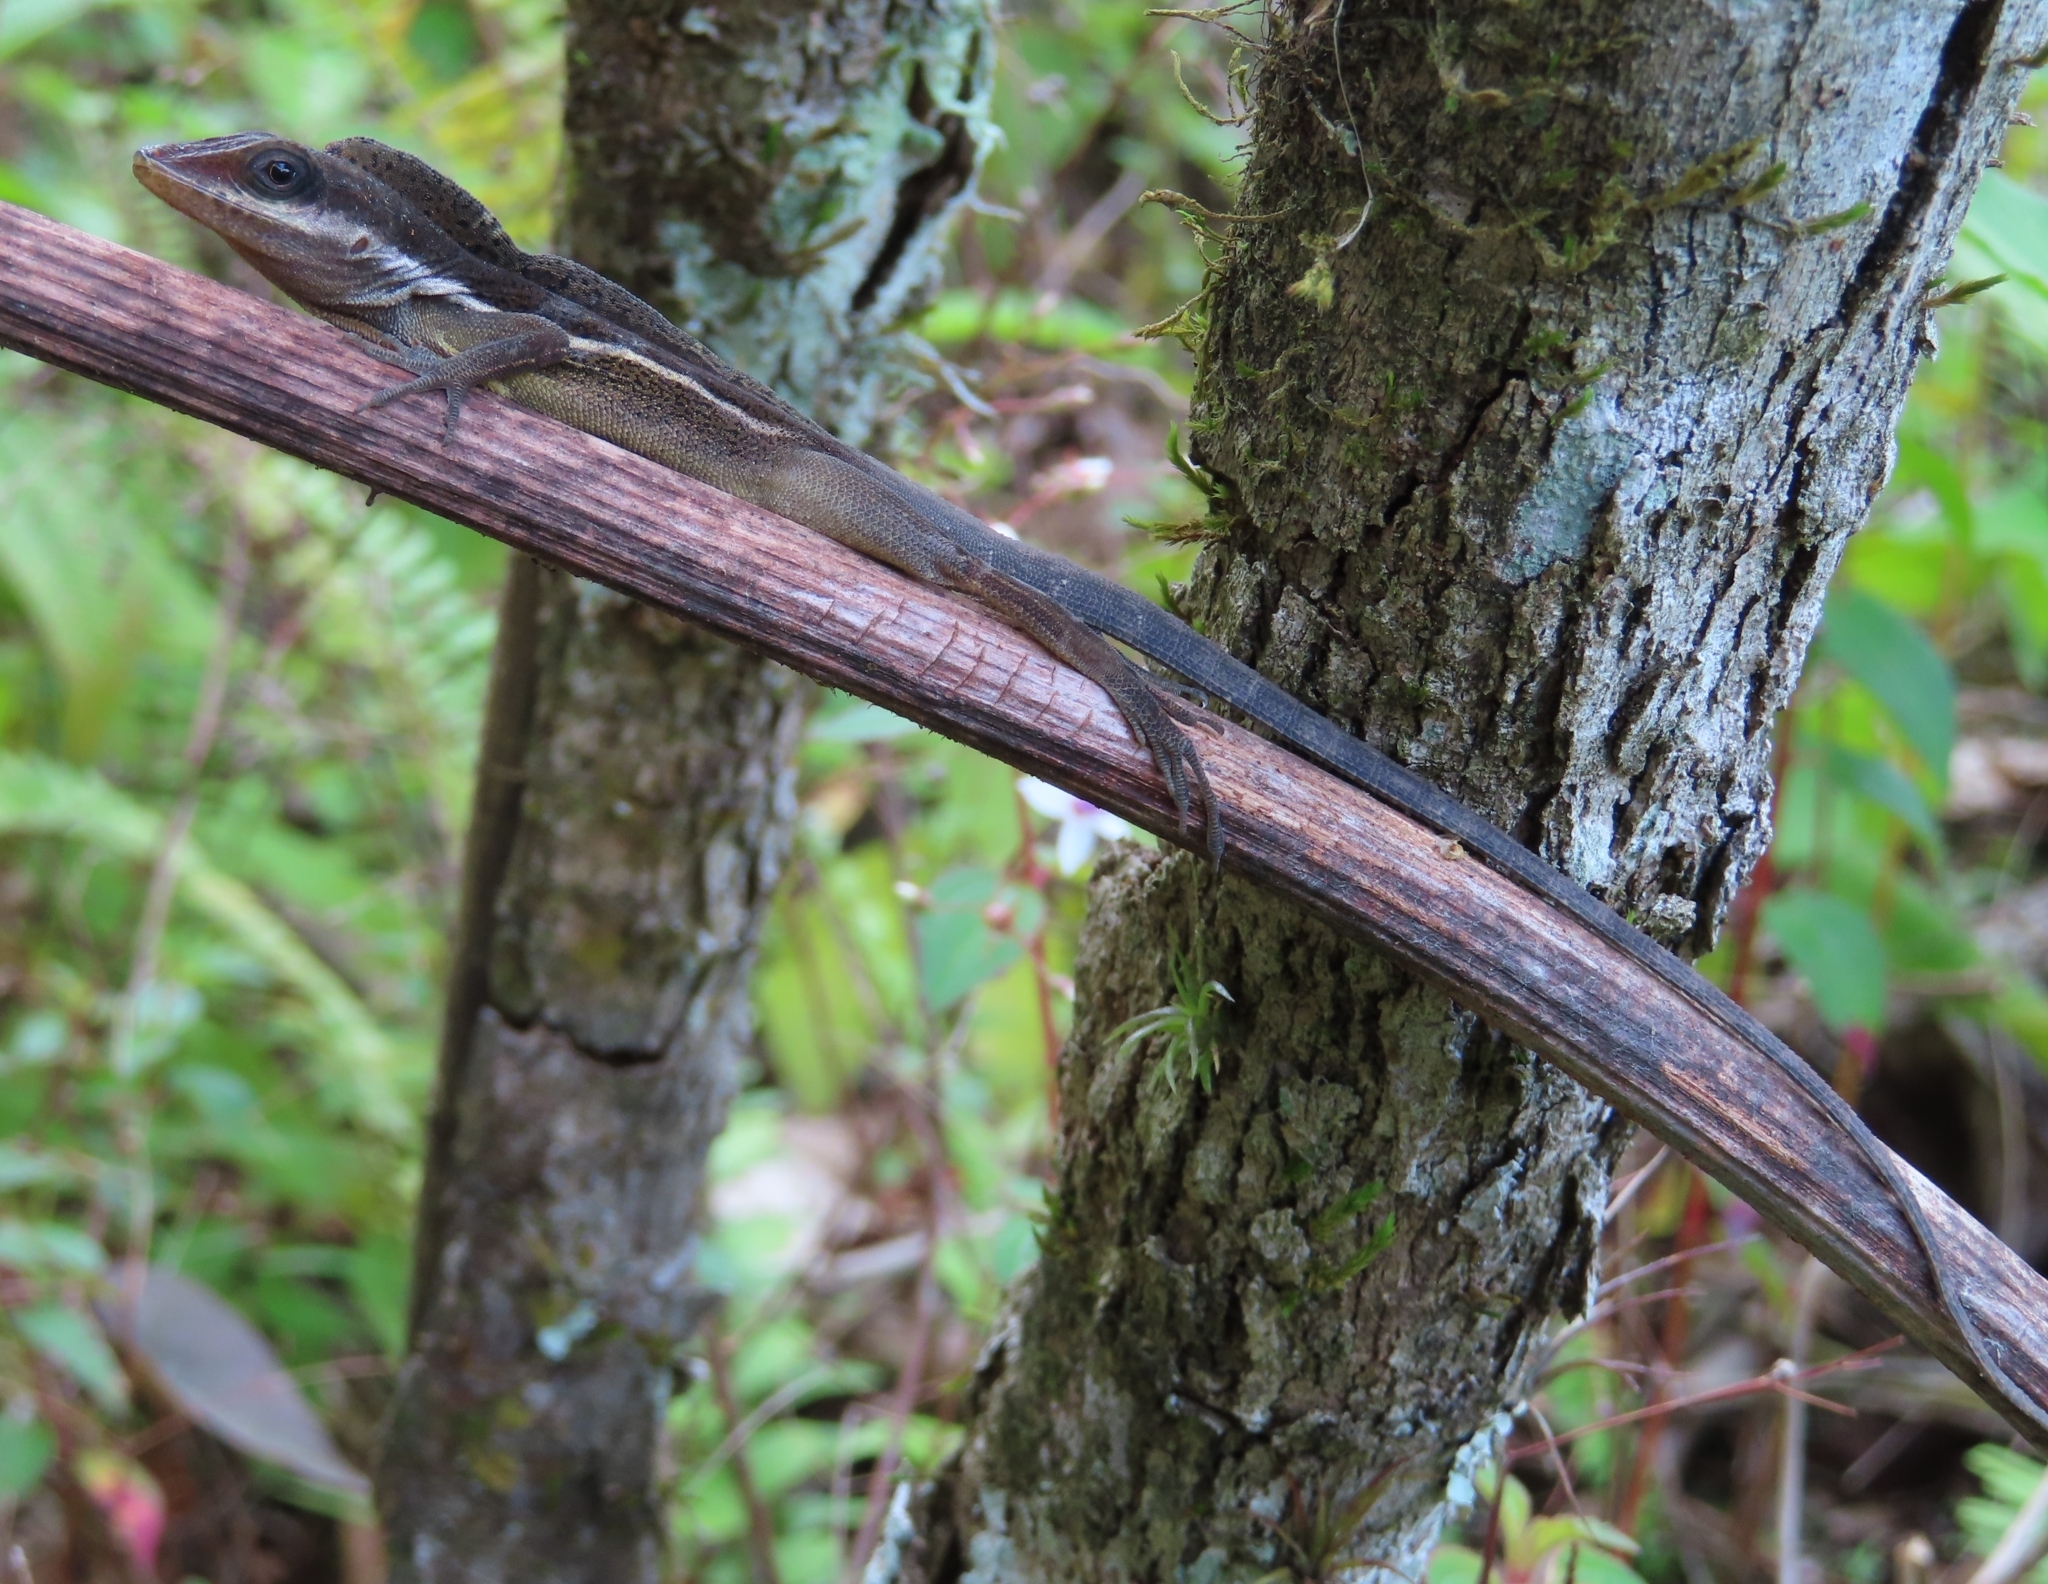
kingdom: Animalia
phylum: Chordata
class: Squamata
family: Dactyloidae
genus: Anolis
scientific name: Anolis krugi
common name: Krug's anole
